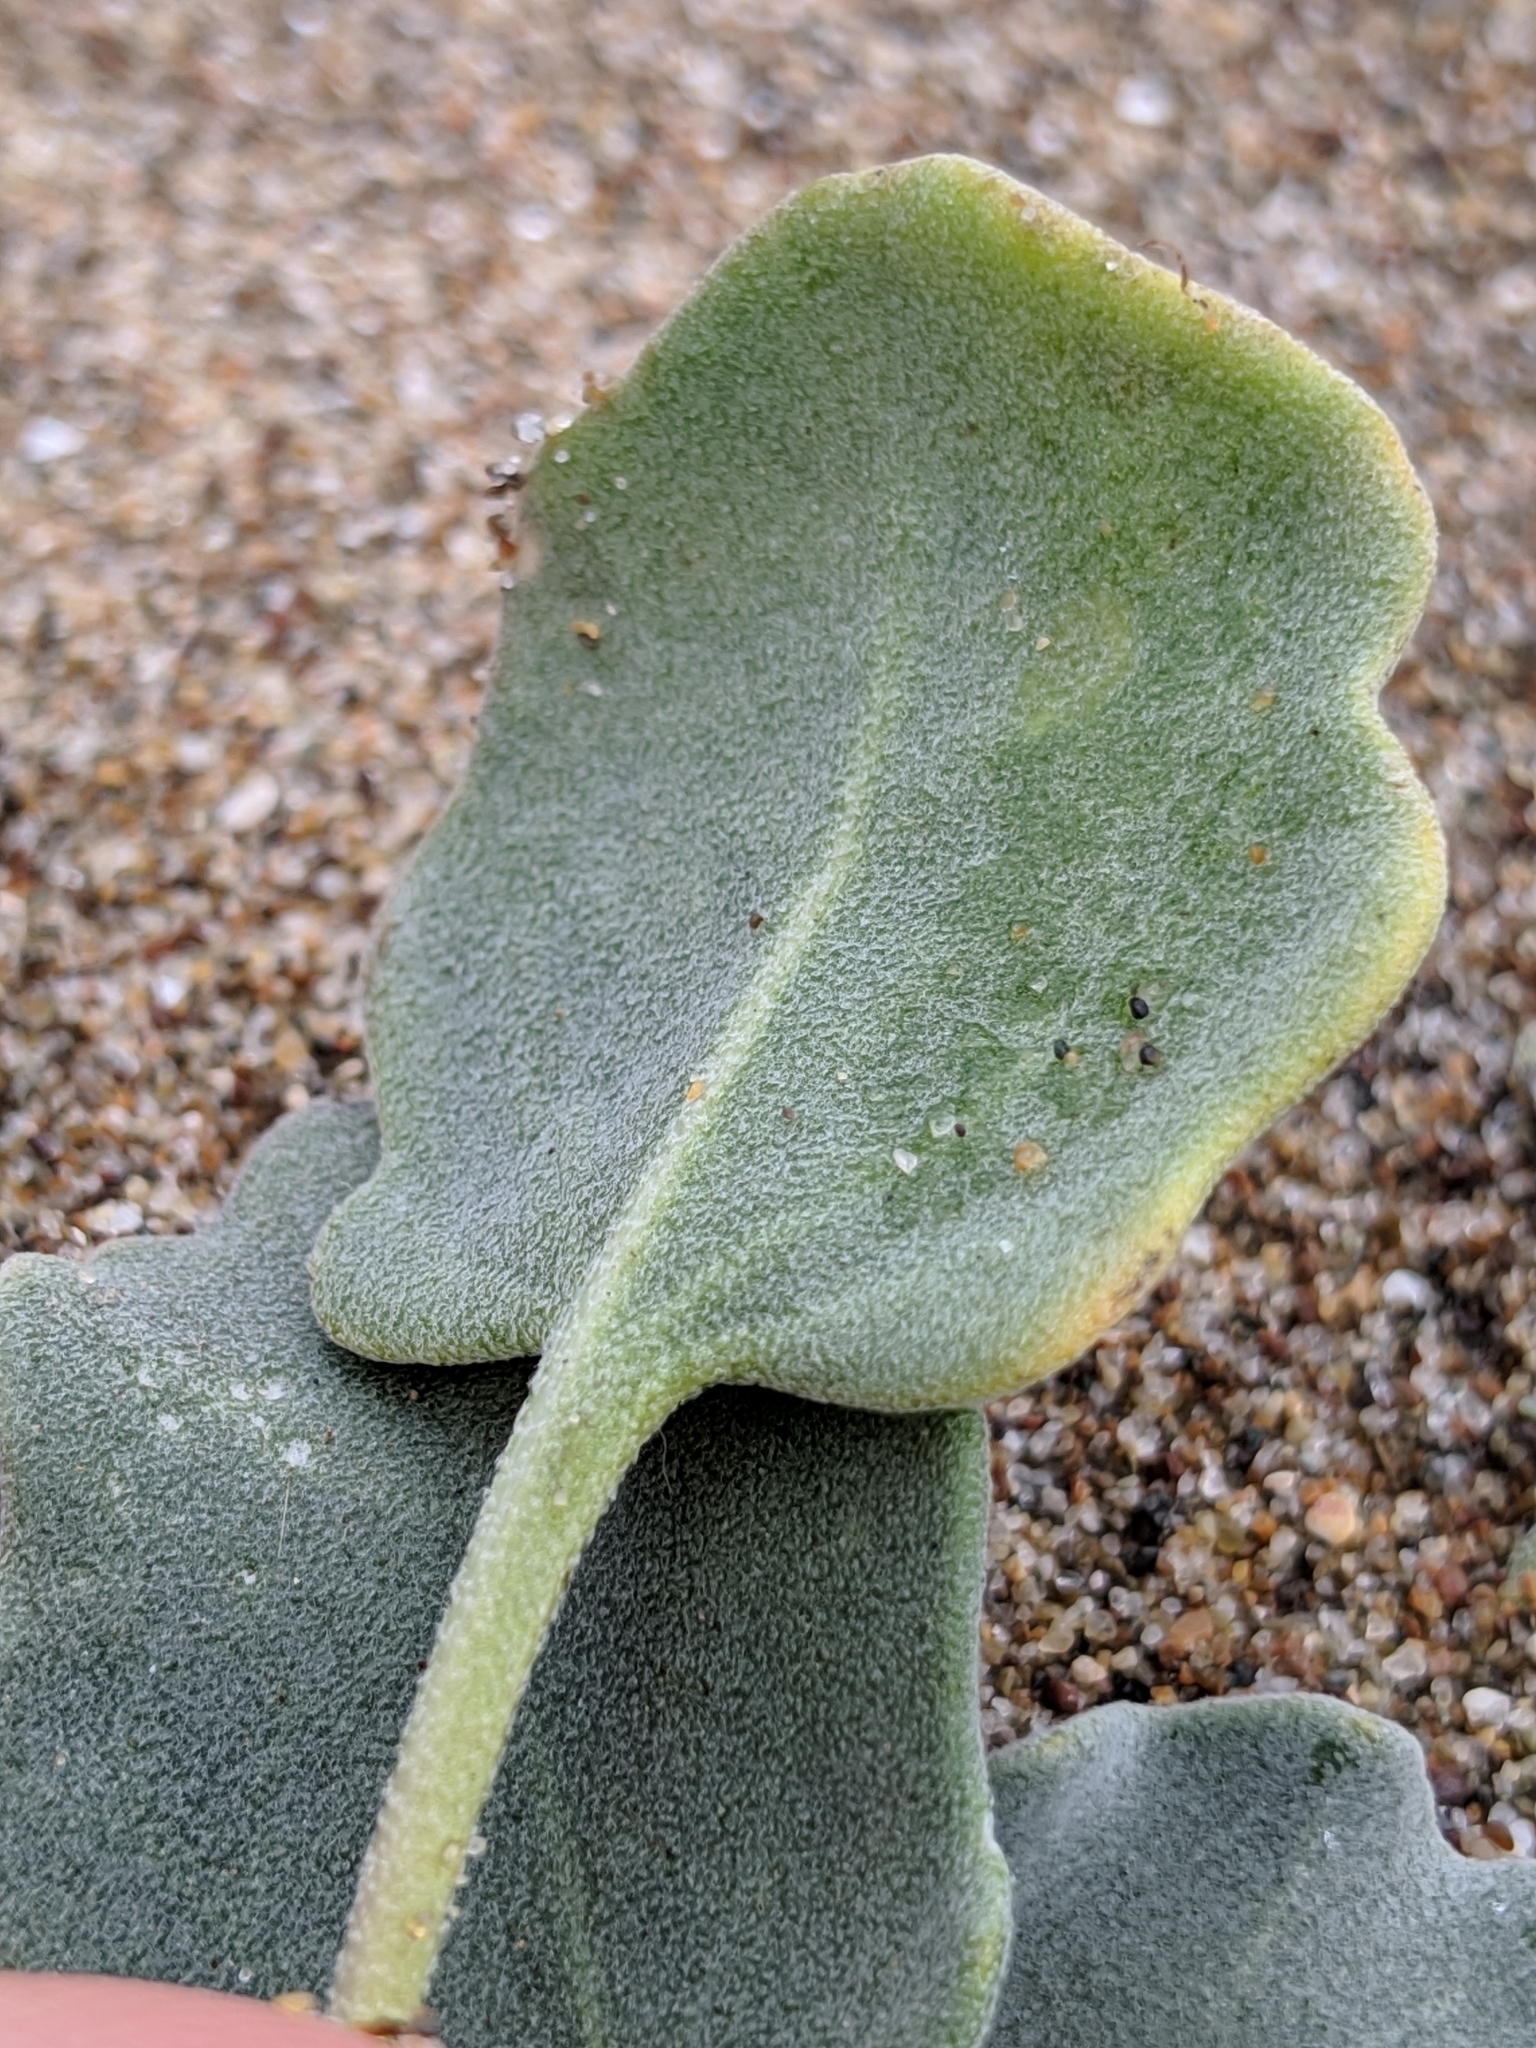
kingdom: Plantae
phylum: Tracheophyta
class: Magnoliopsida
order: Brassicales
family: Brassicaceae
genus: Dithyrea
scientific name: Dithyrea maritima
